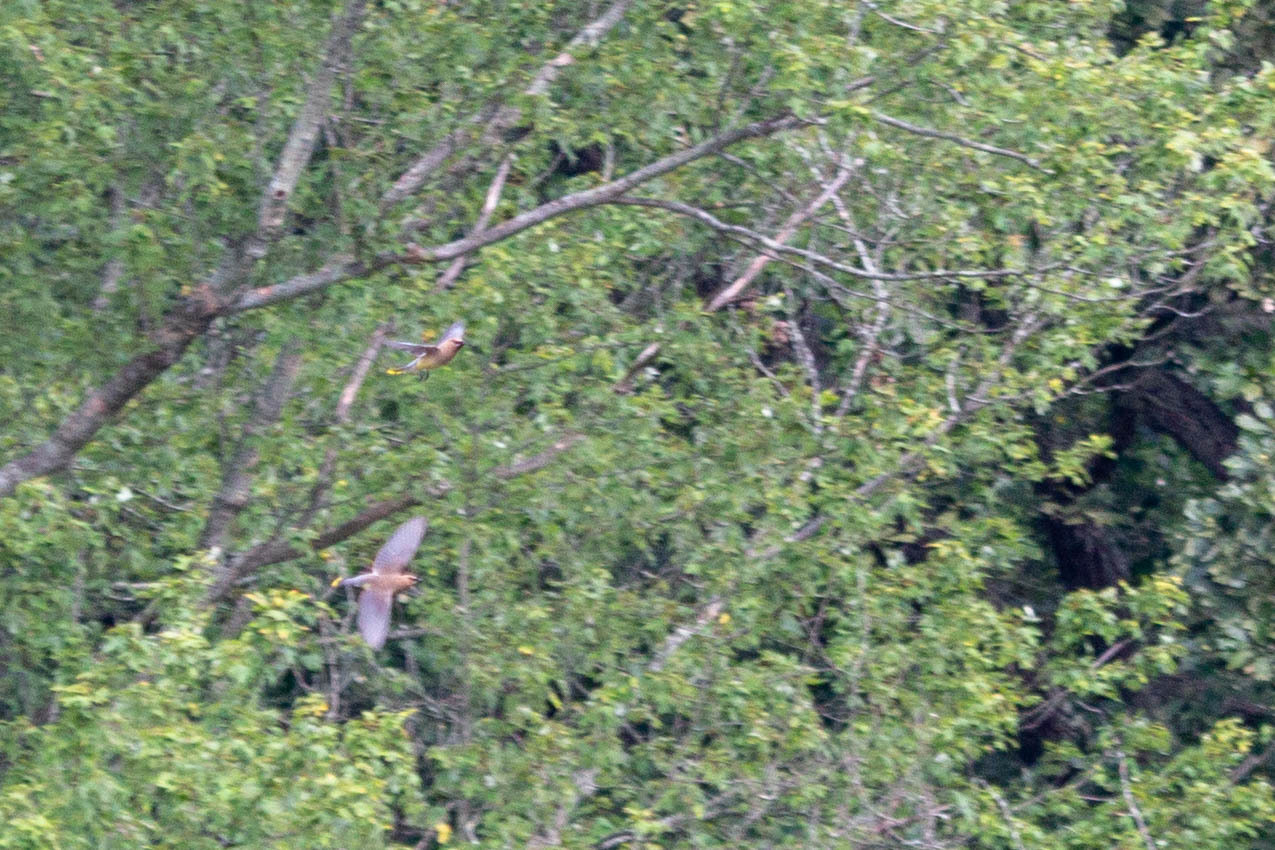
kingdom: Animalia
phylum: Chordata
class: Aves
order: Passeriformes
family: Bombycillidae
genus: Bombycilla
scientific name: Bombycilla cedrorum
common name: Cedar waxwing
